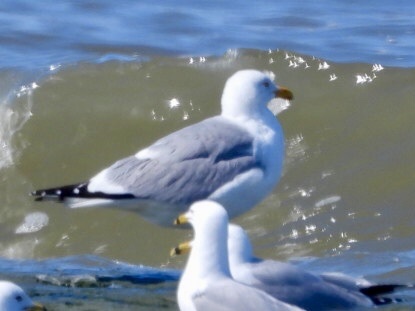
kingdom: Animalia
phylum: Chordata
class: Aves
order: Charadriiformes
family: Laridae
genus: Larus
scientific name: Larus argentatus
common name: Herring gull
